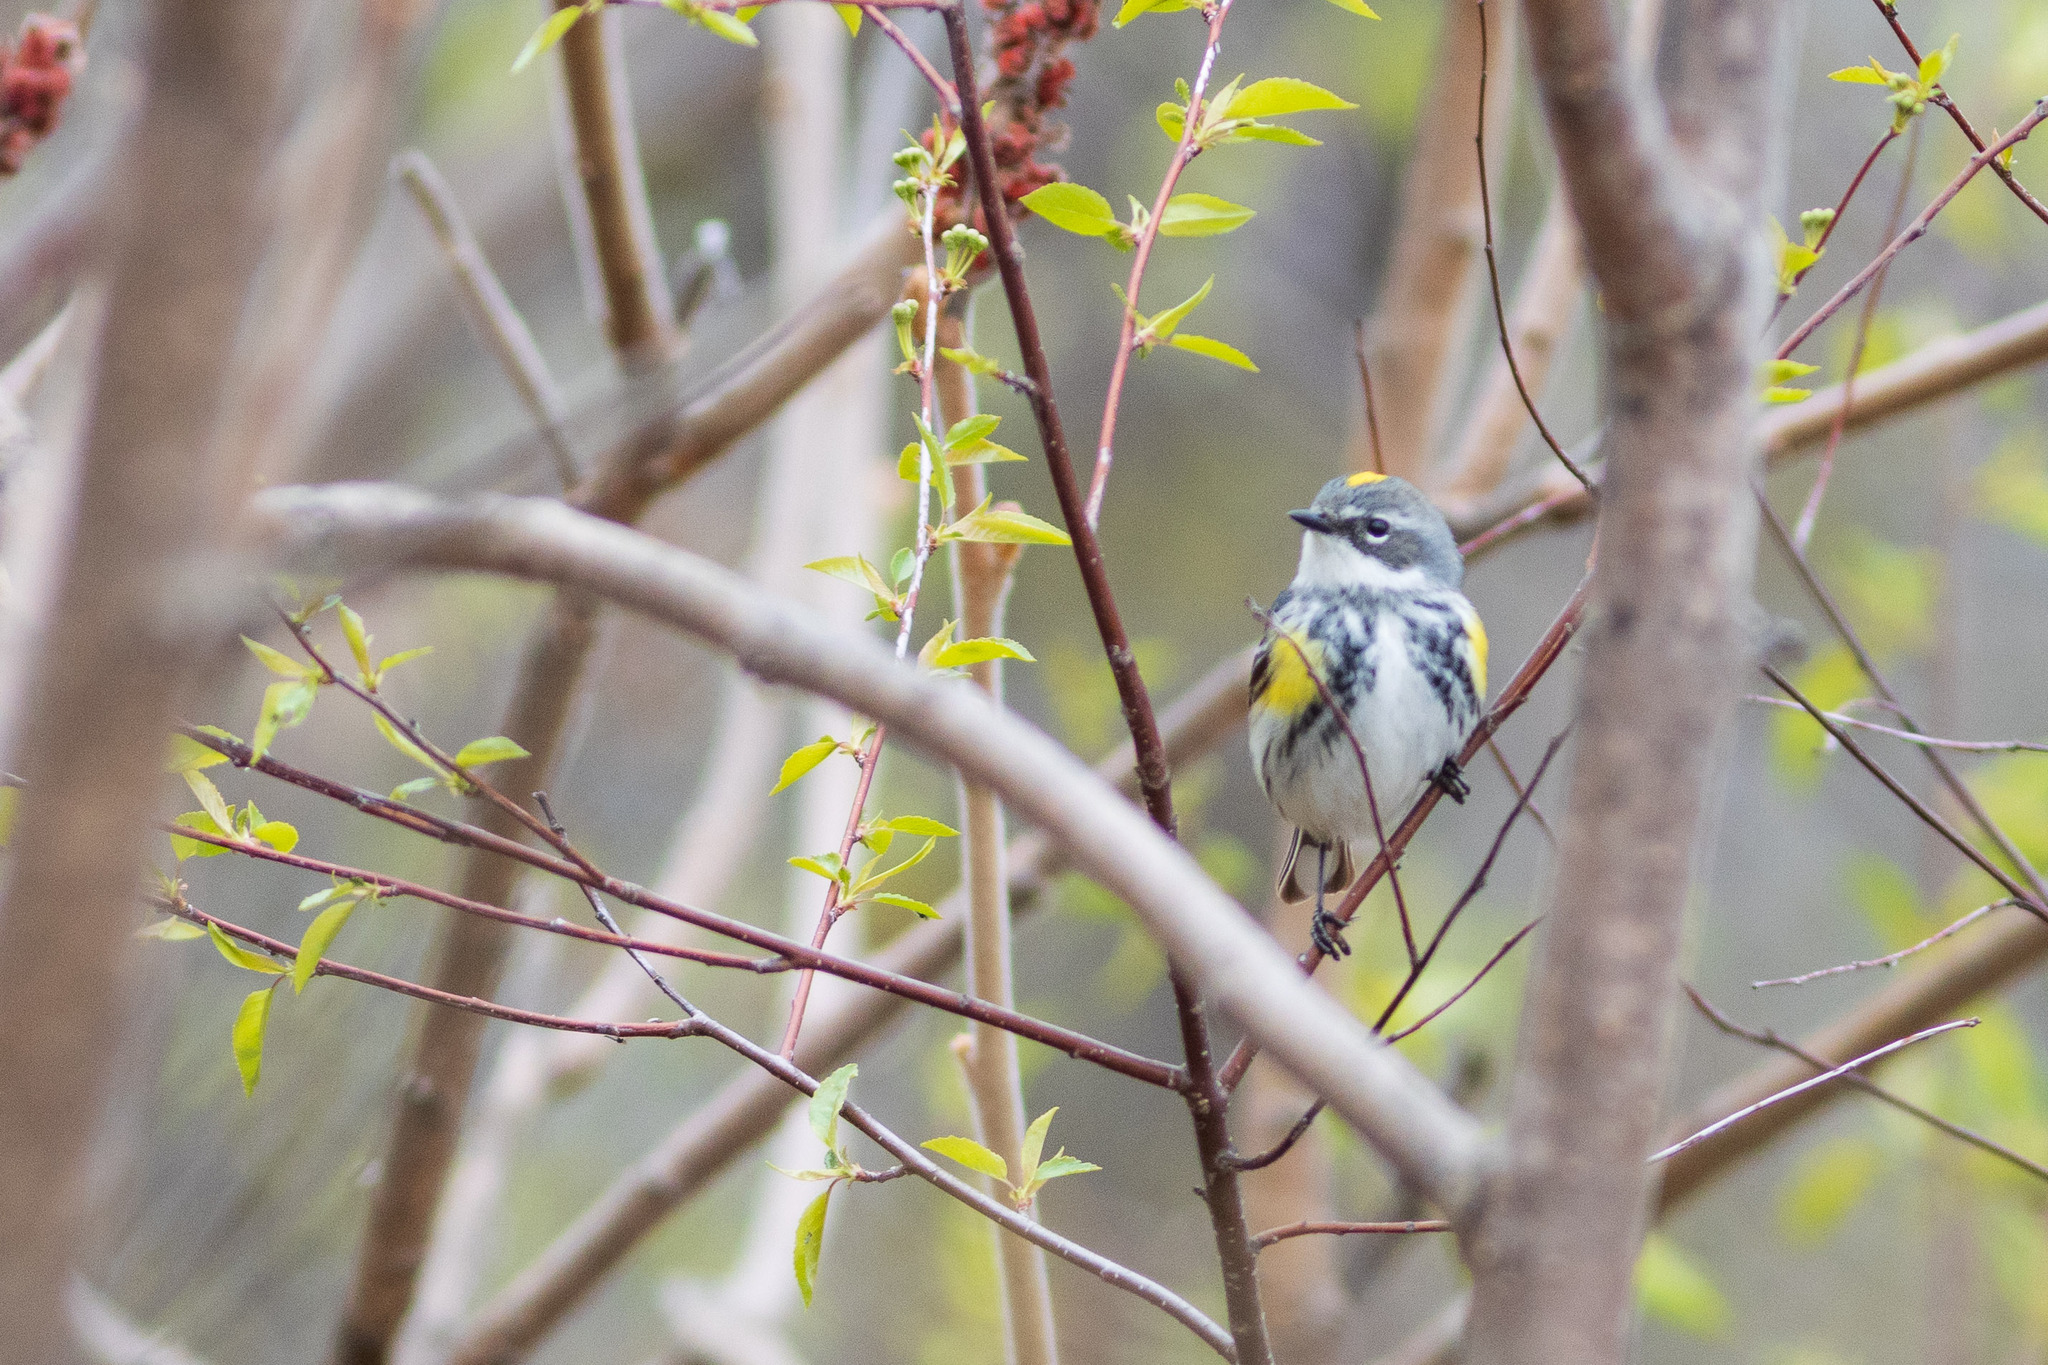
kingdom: Animalia
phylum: Chordata
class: Aves
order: Passeriformes
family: Parulidae
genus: Setophaga
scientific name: Setophaga coronata
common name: Myrtle warbler
